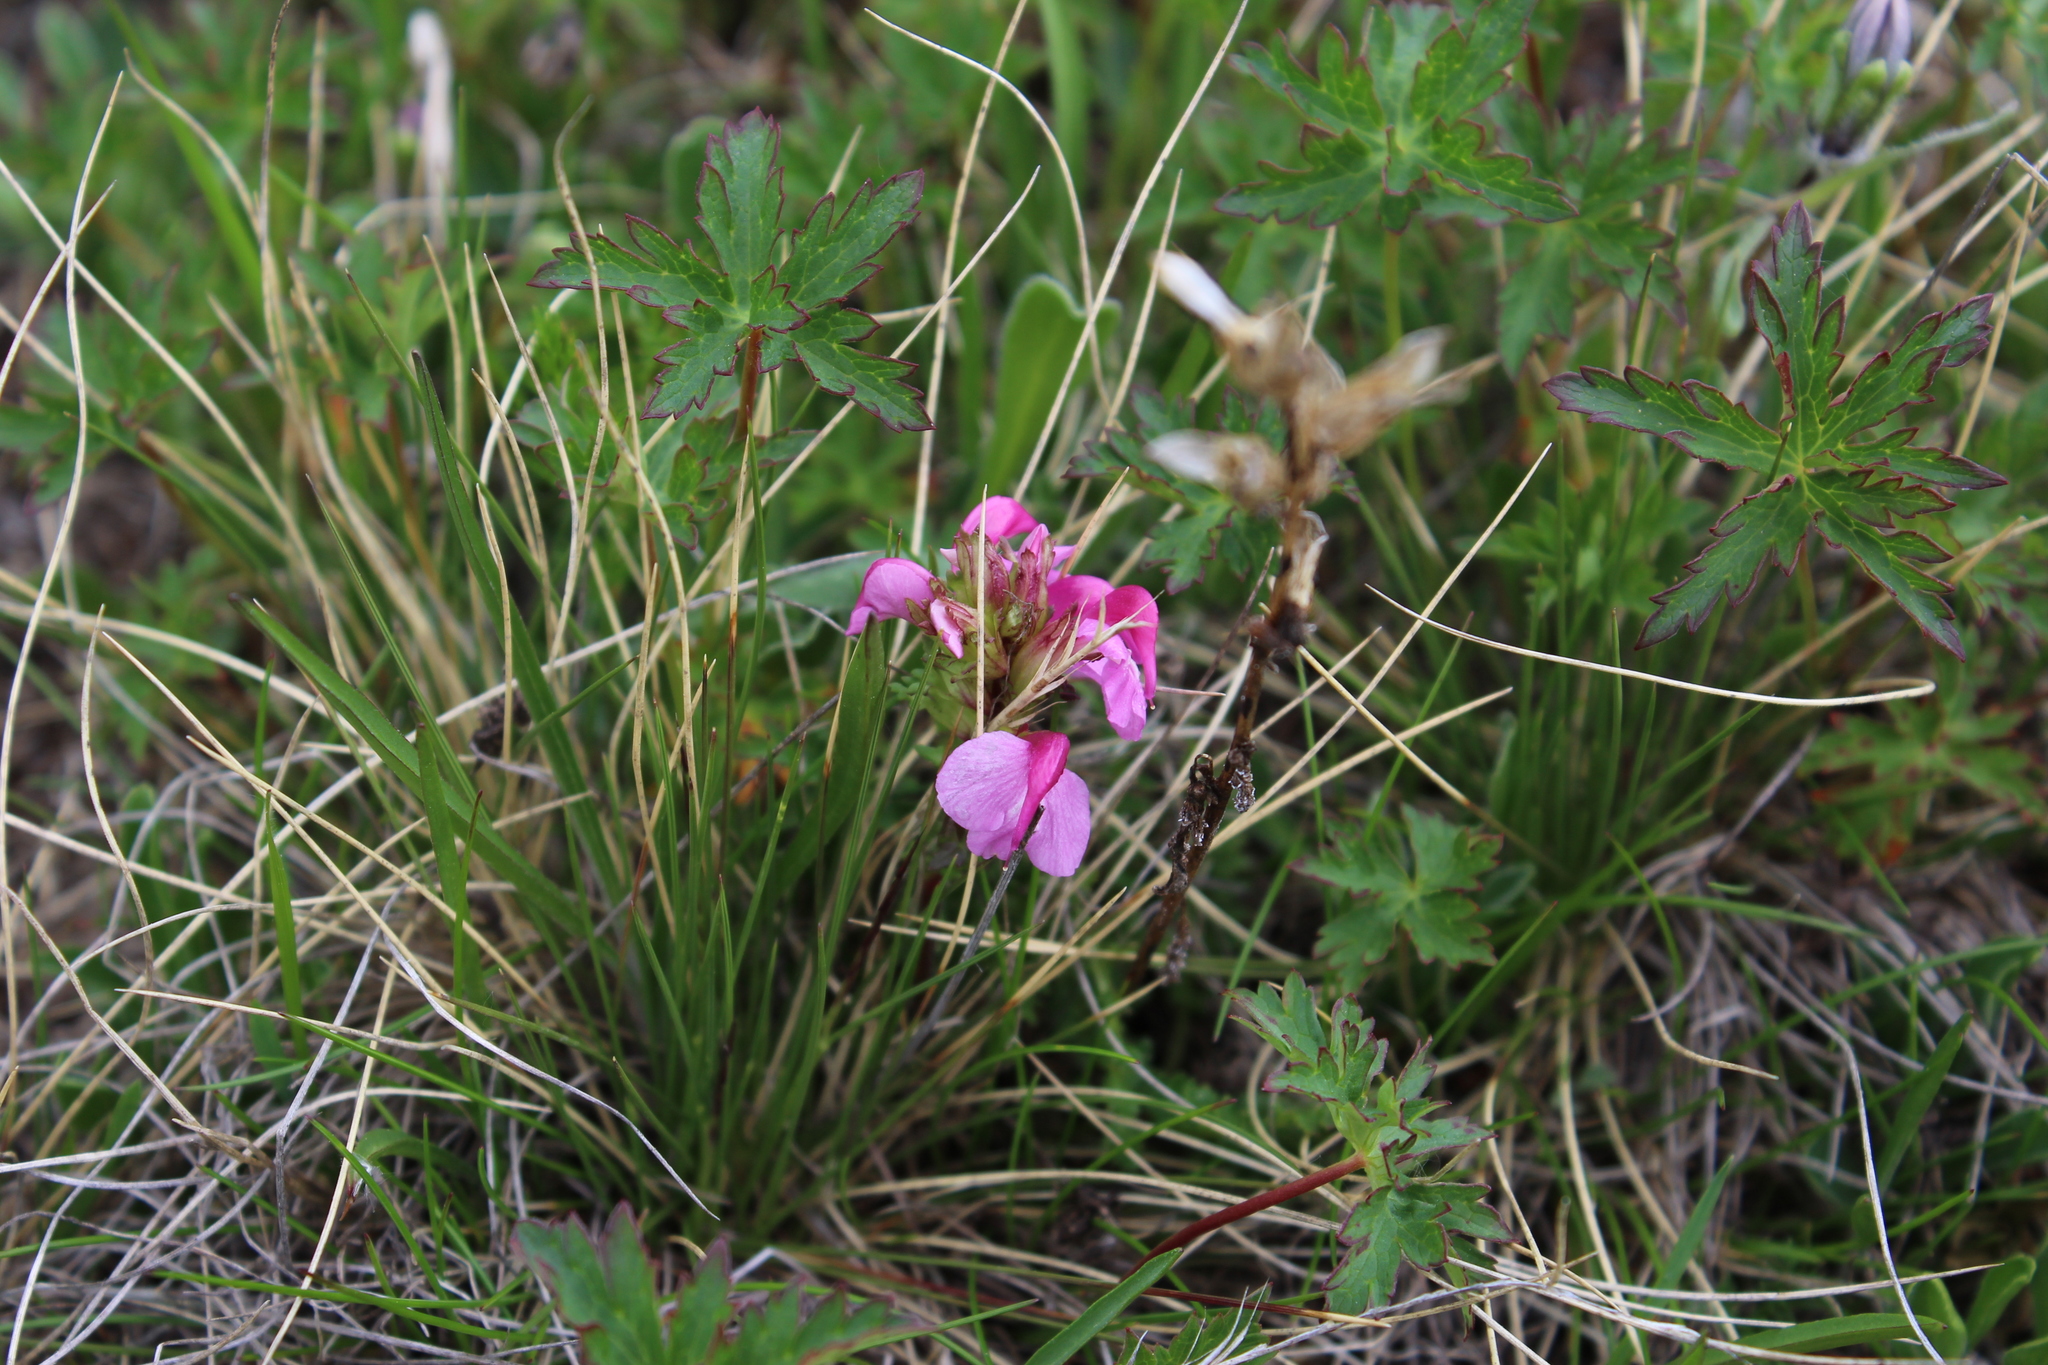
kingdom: Plantae
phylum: Tracheophyta
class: Magnoliopsida
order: Lamiales
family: Orobanchaceae
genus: Pedicularis
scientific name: Pedicularis nordmanniana
